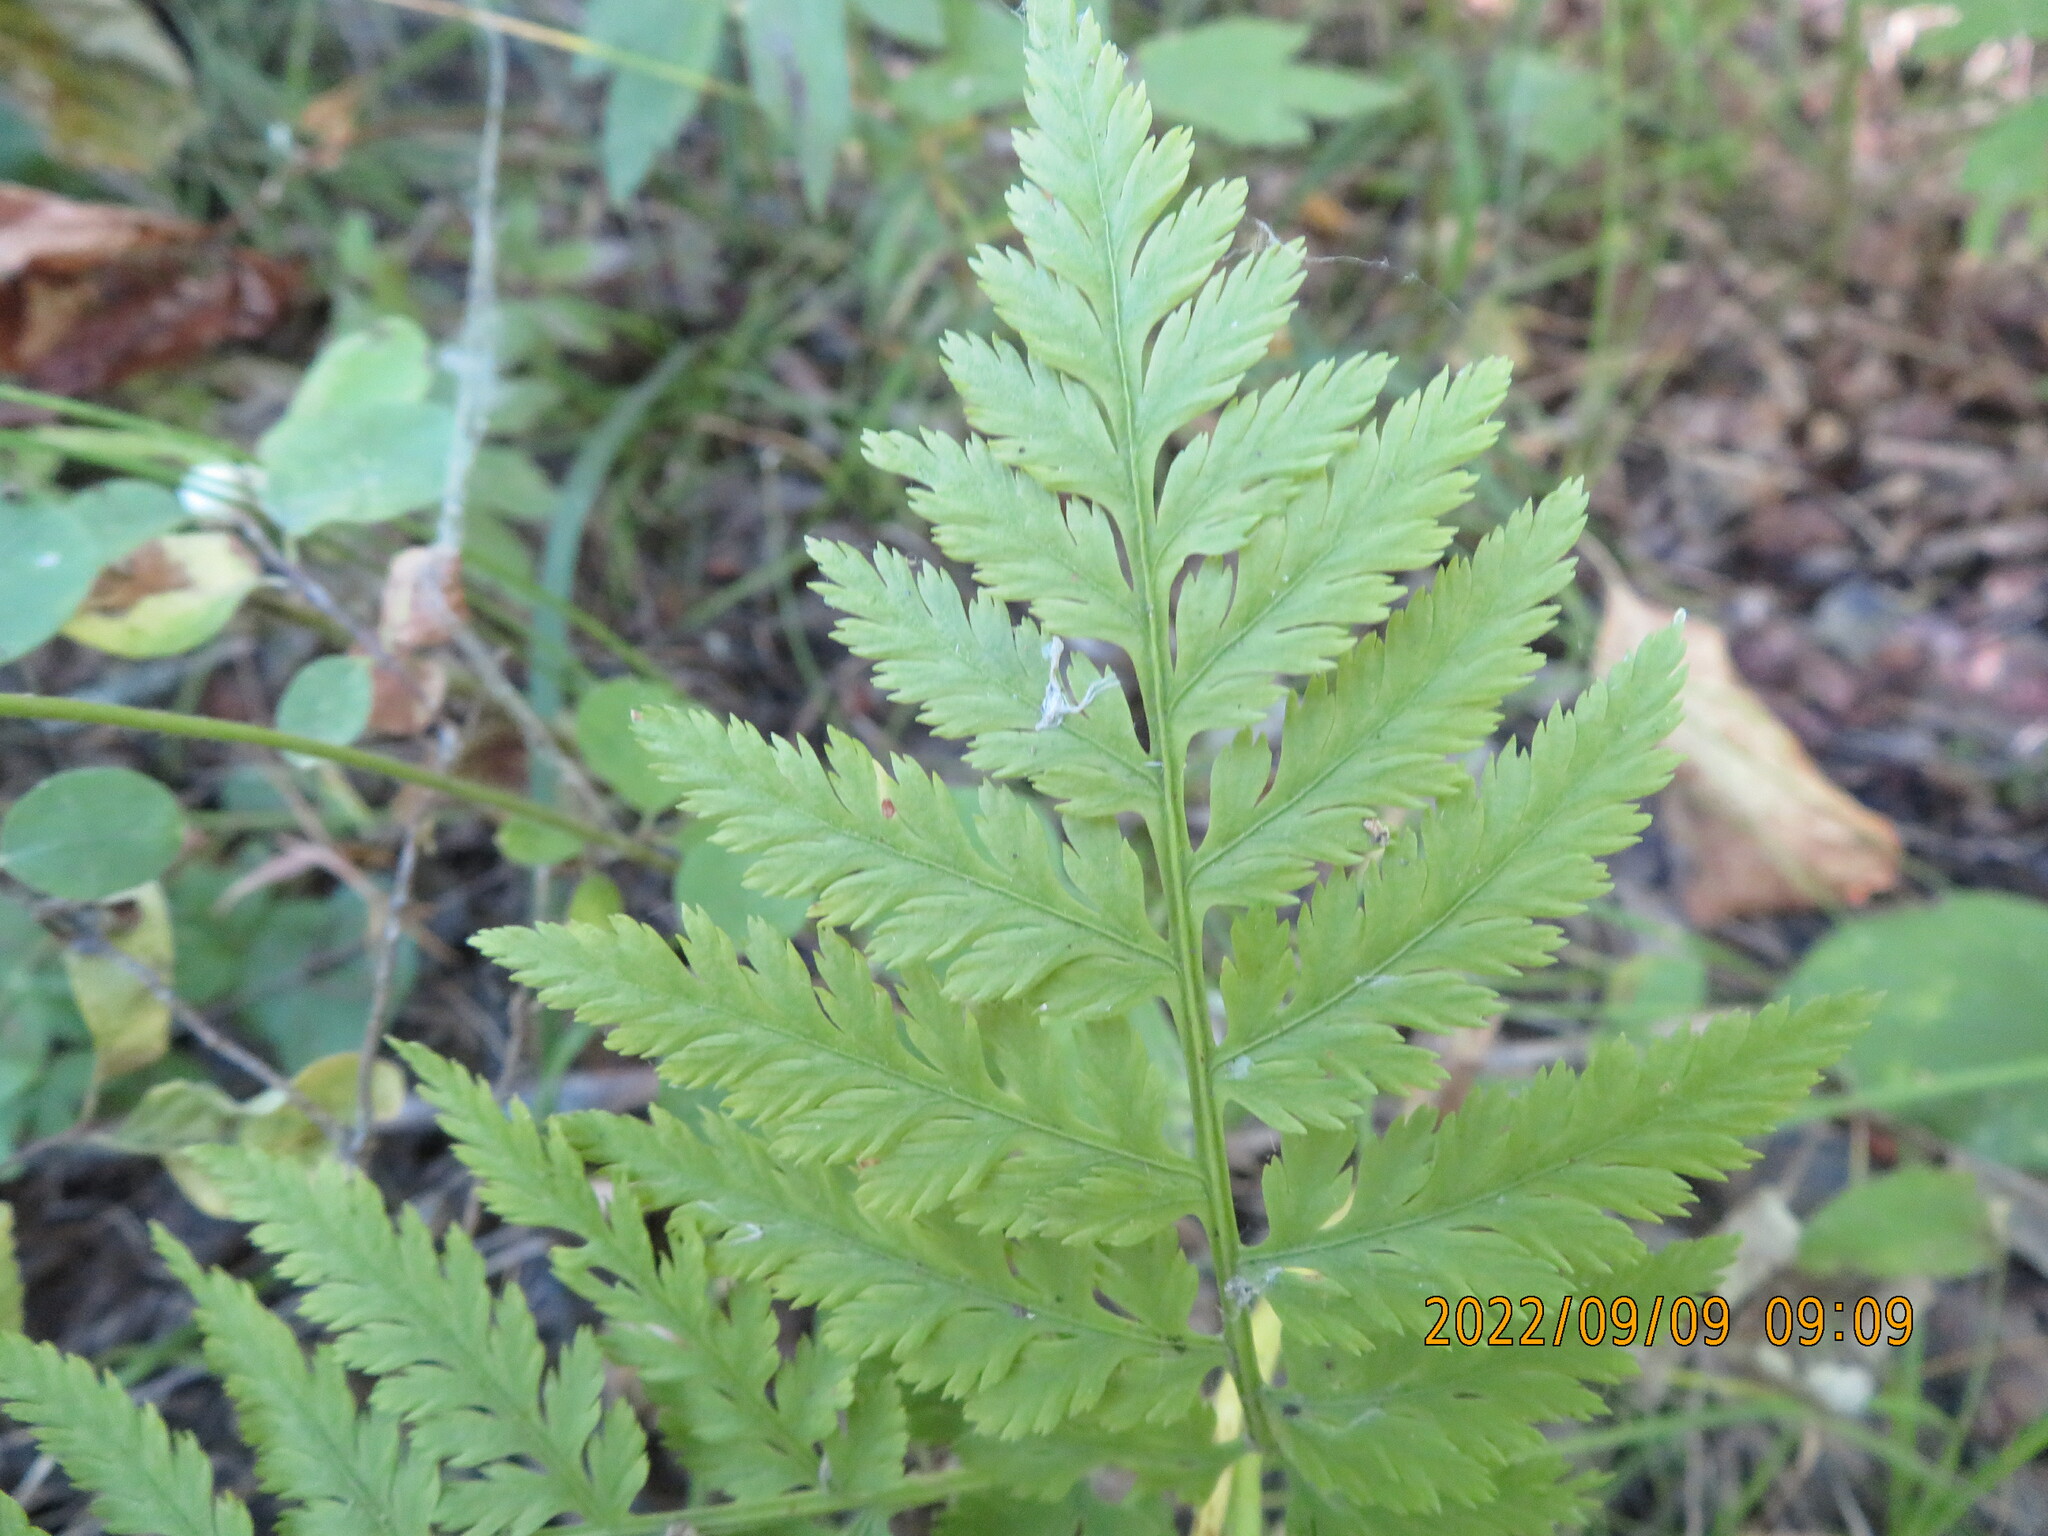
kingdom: Plantae
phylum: Tracheophyta
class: Polypodiopsida
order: Ophioglossales
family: Ophioglossaceae
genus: Botrypus
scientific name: Botrypus virginianus
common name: Common grapefern
